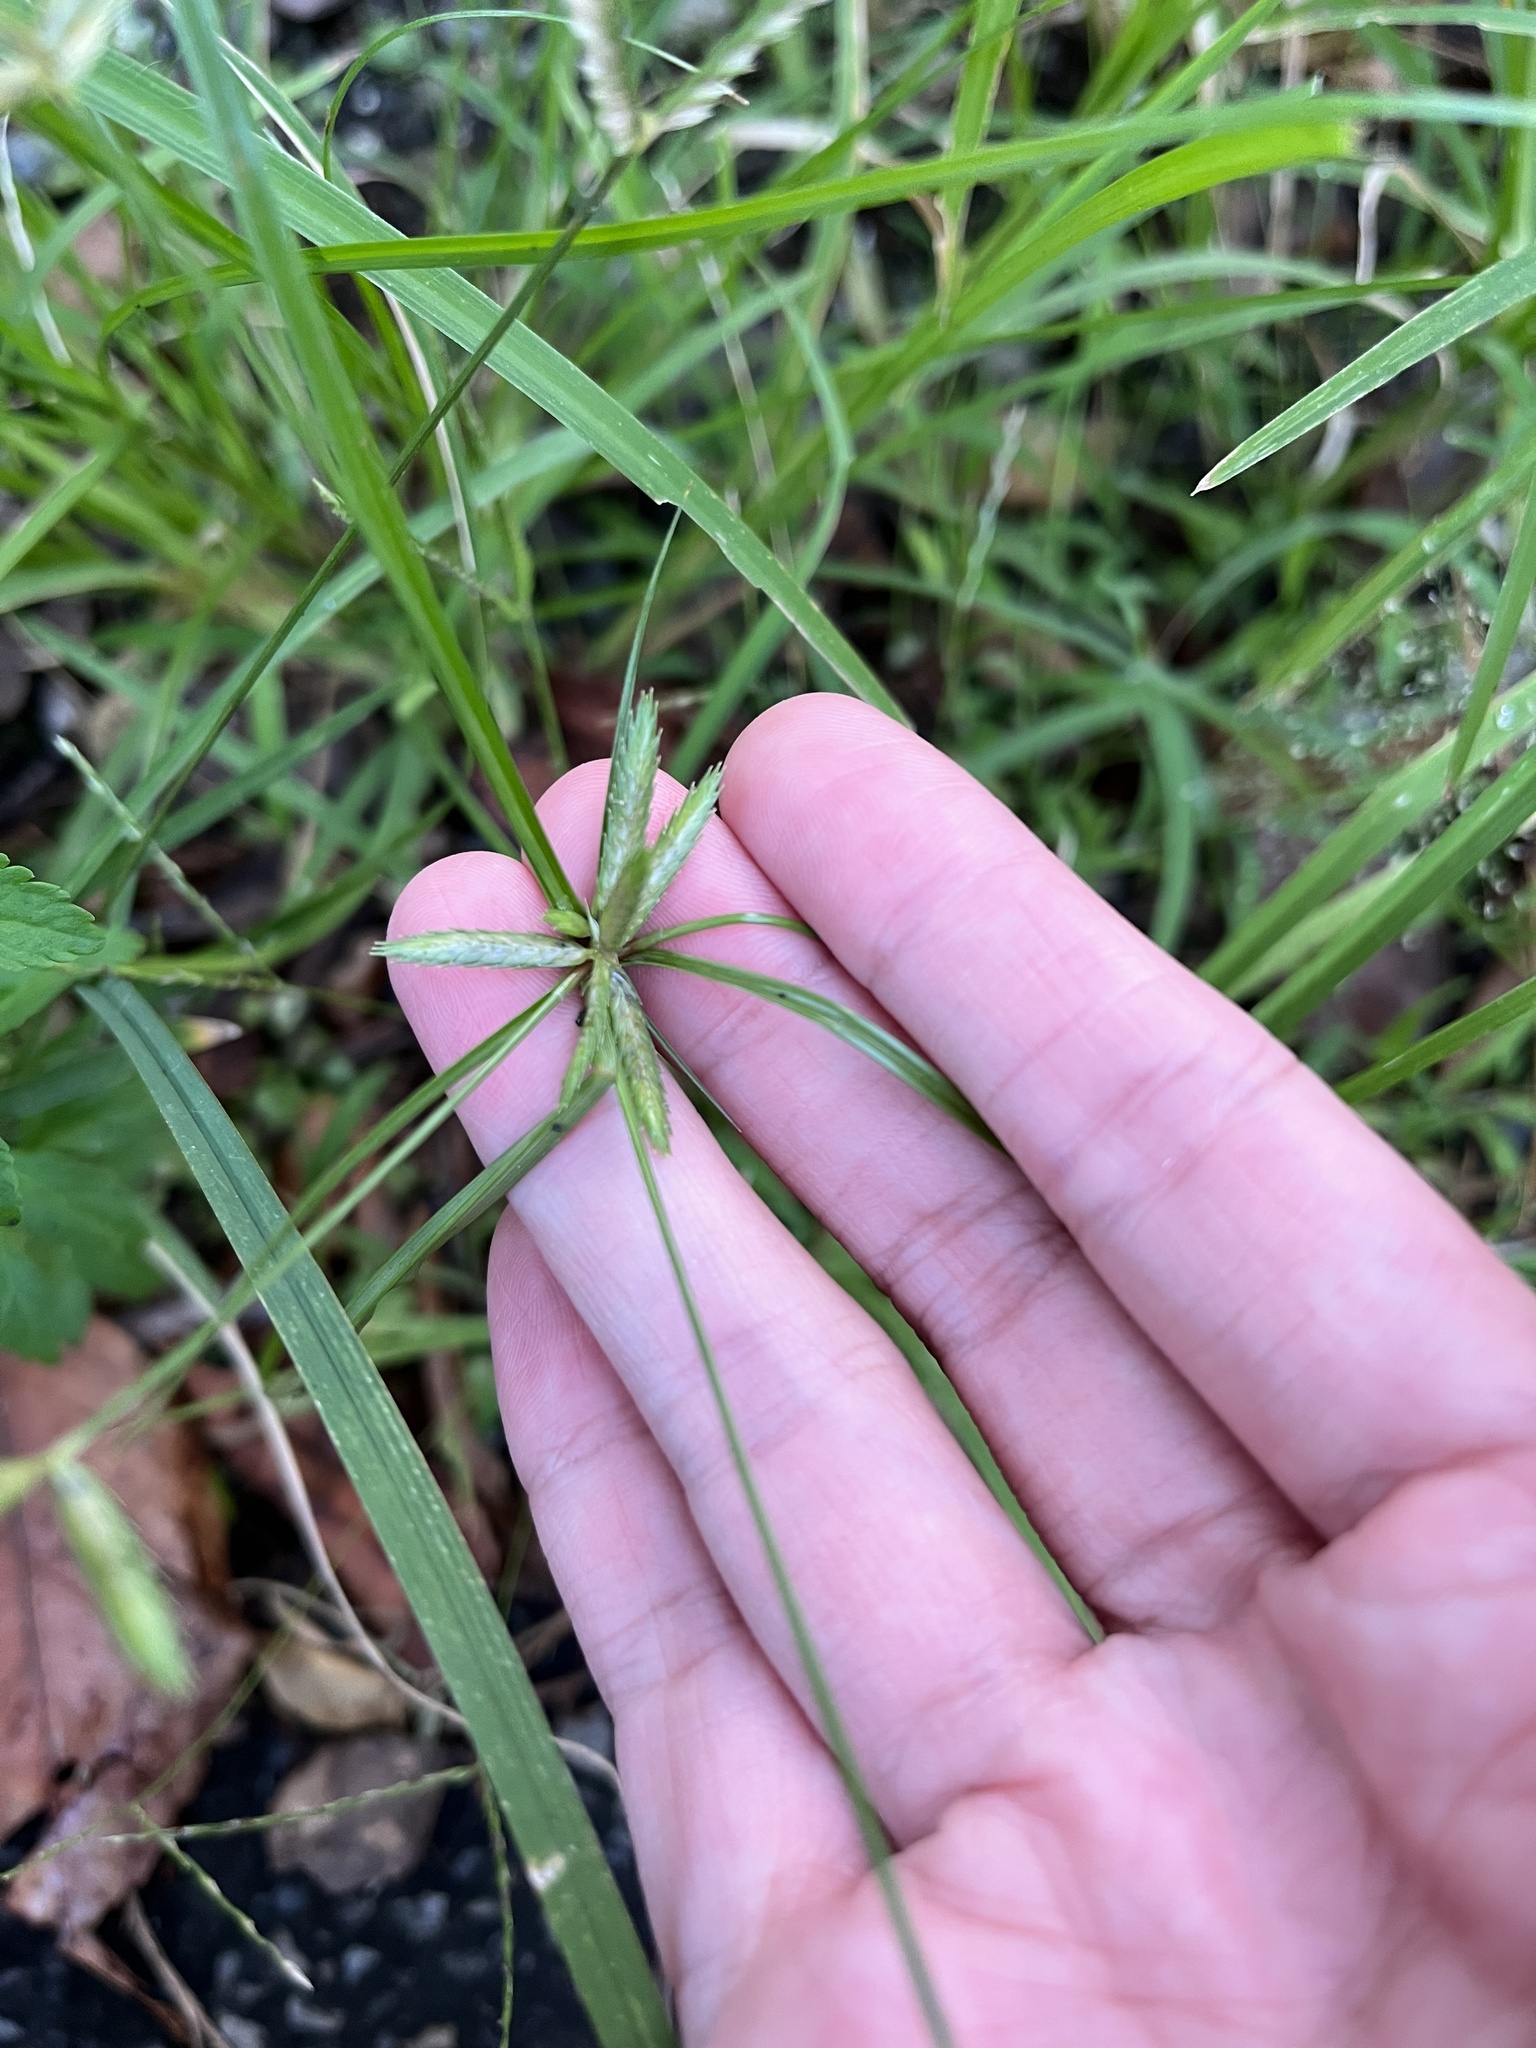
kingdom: Plantae
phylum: Tracheophyta
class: Liliopsida
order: Poales
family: Cyperaceae
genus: Cyperus
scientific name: Cyperus compressus
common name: Poorland flatsedge
